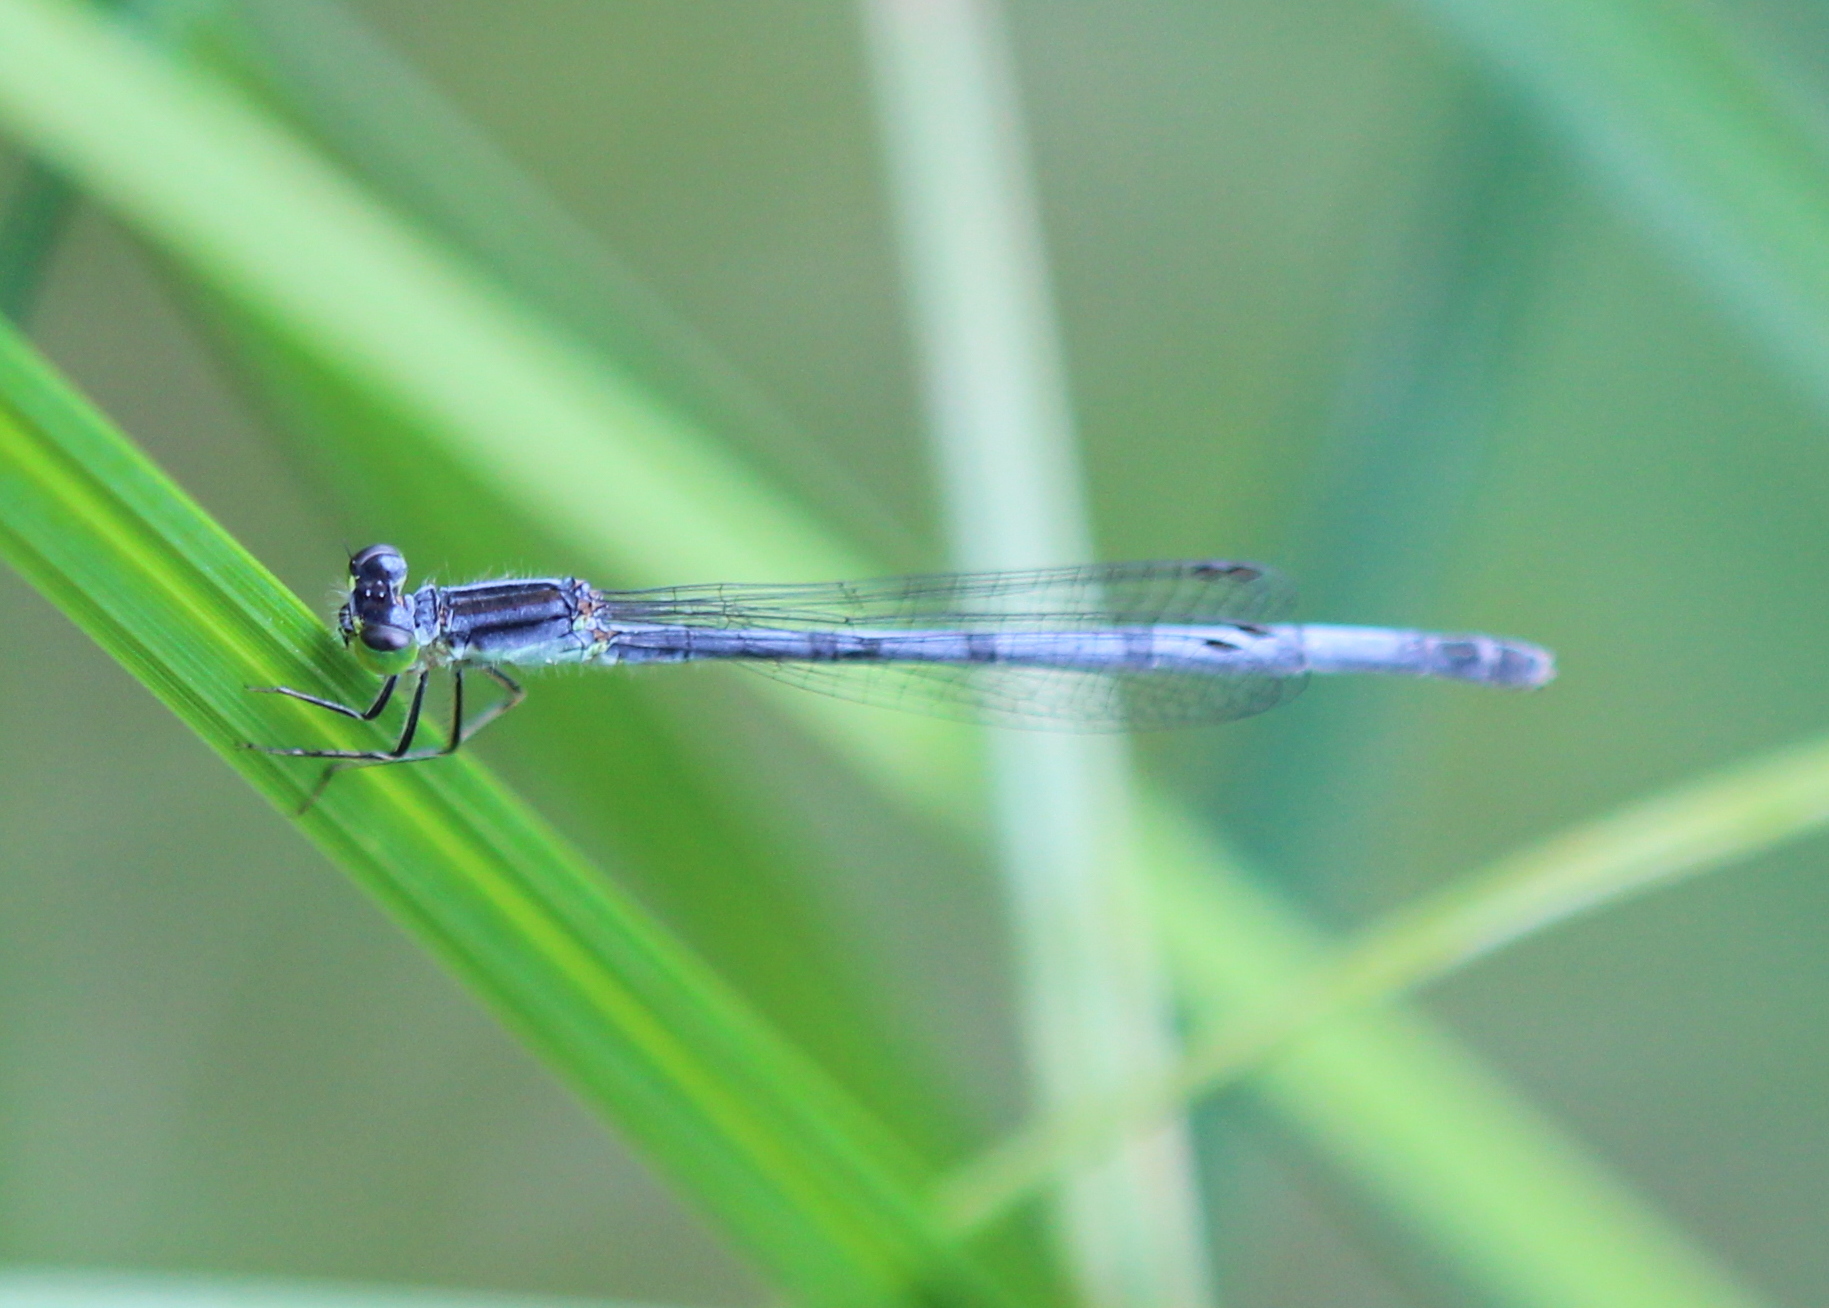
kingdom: Animalia
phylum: Arthropoda
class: Insecta
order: Odonata
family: Coenagrionidae
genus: Ischnura
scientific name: Ischnura verticalis
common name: Eastern forktail
